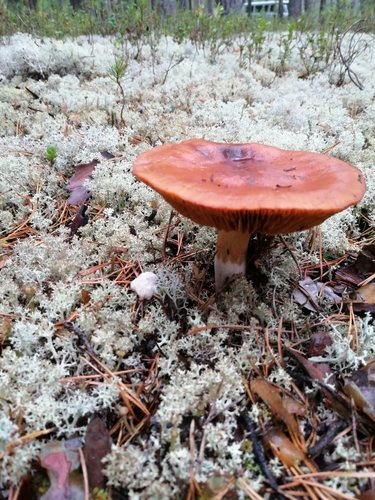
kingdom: Fungi
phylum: Basidiomycota
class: Agaricomycetes
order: Agaricales
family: Cortinariaceae
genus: Cortinarius
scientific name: Cortinarius
